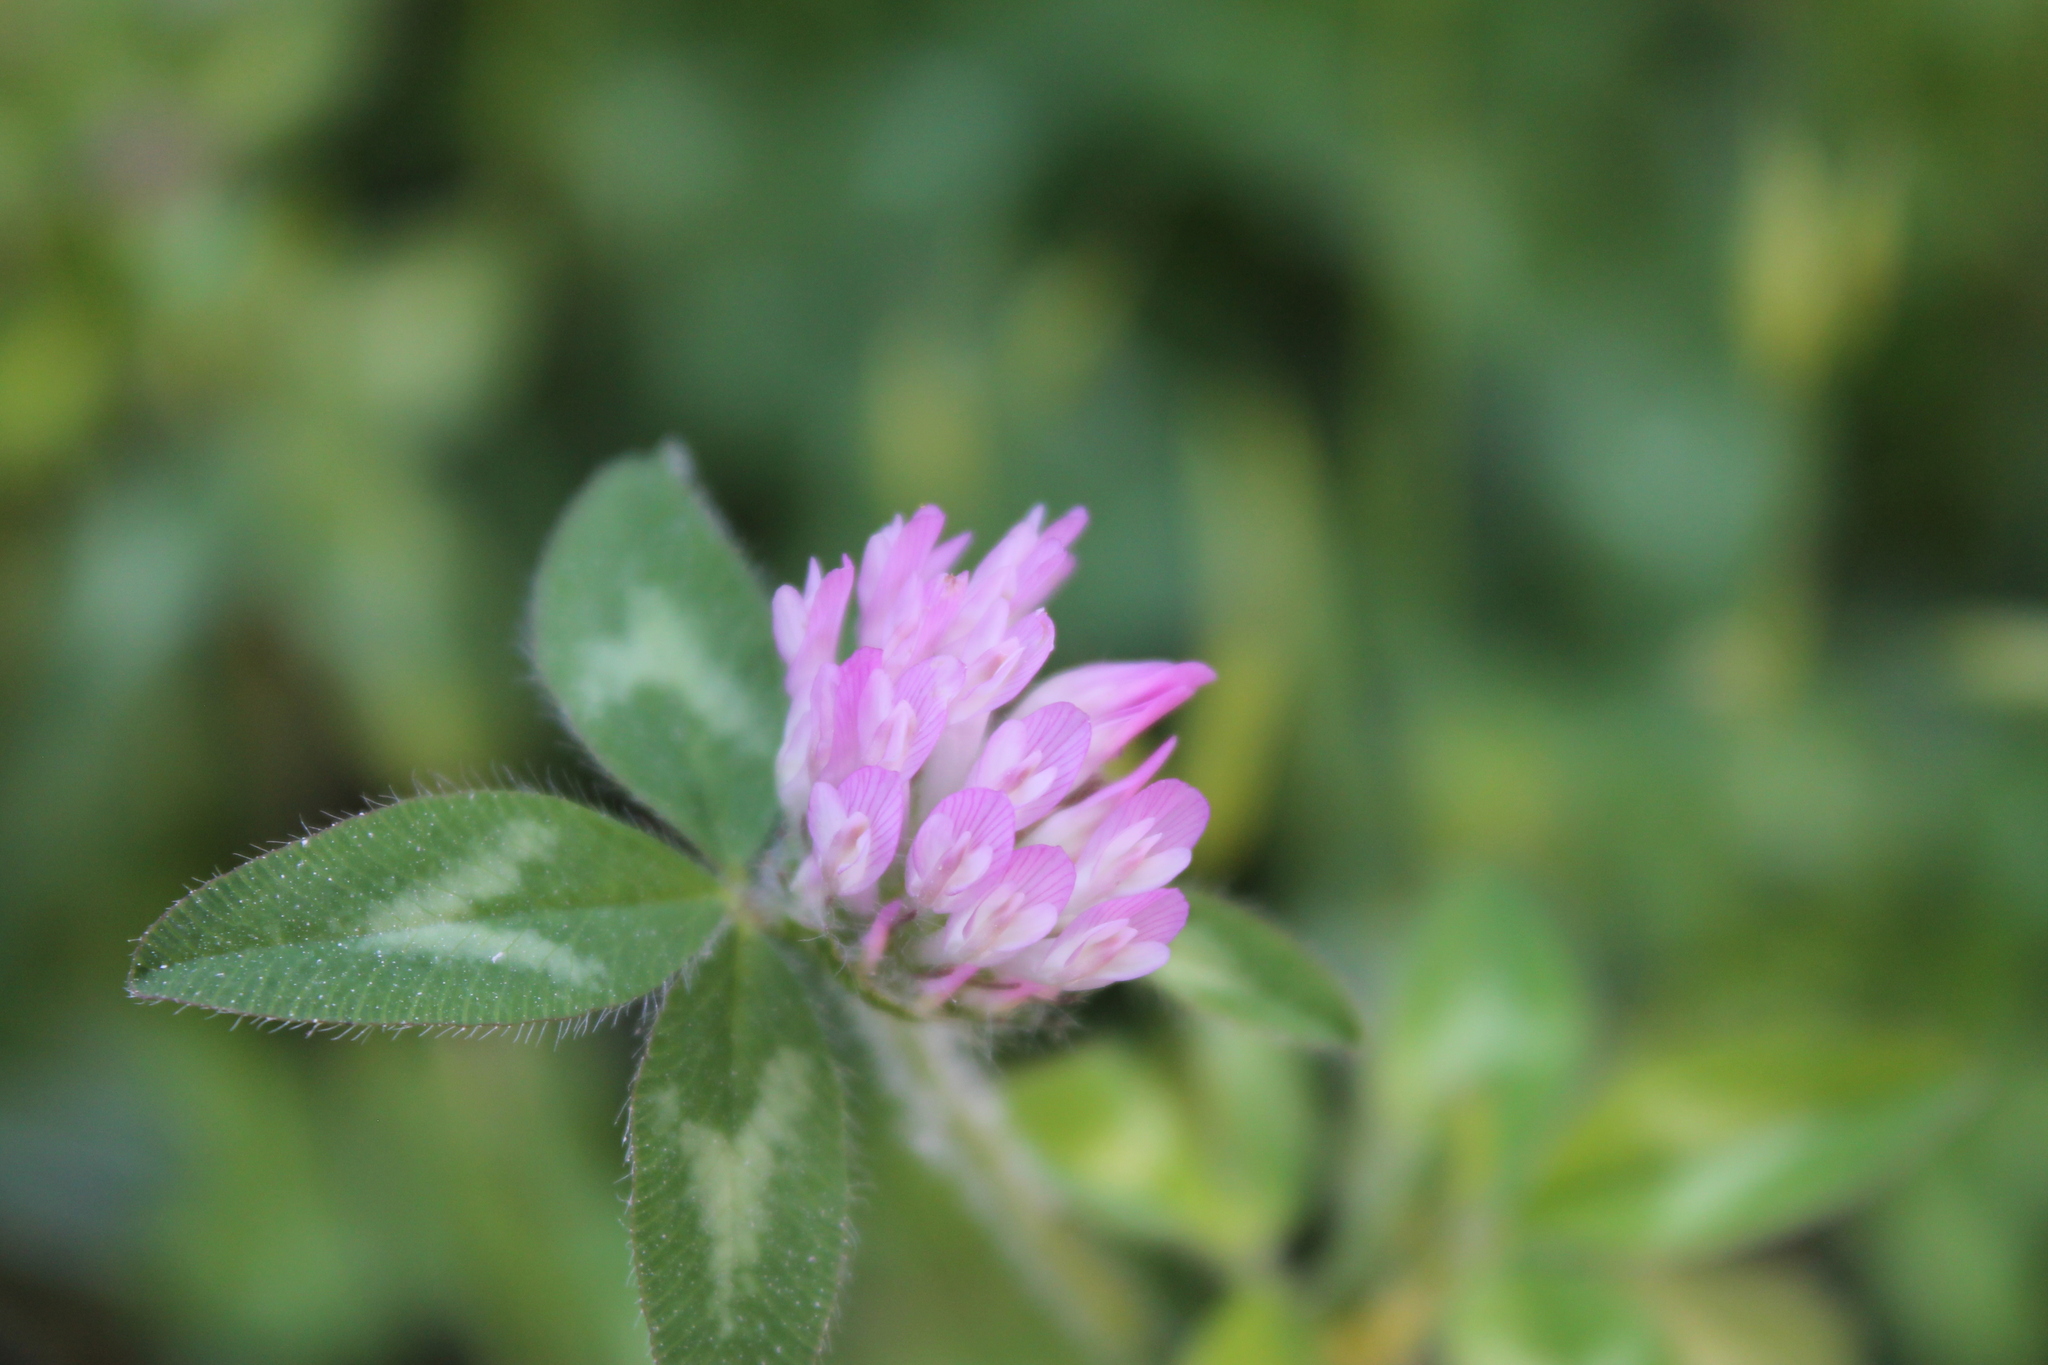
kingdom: Plantae
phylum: Tracheophyta
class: Magnoliopsida
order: Fabales
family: Fabaceae
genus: Trifolium
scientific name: Trifolium pratense
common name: Red clover
